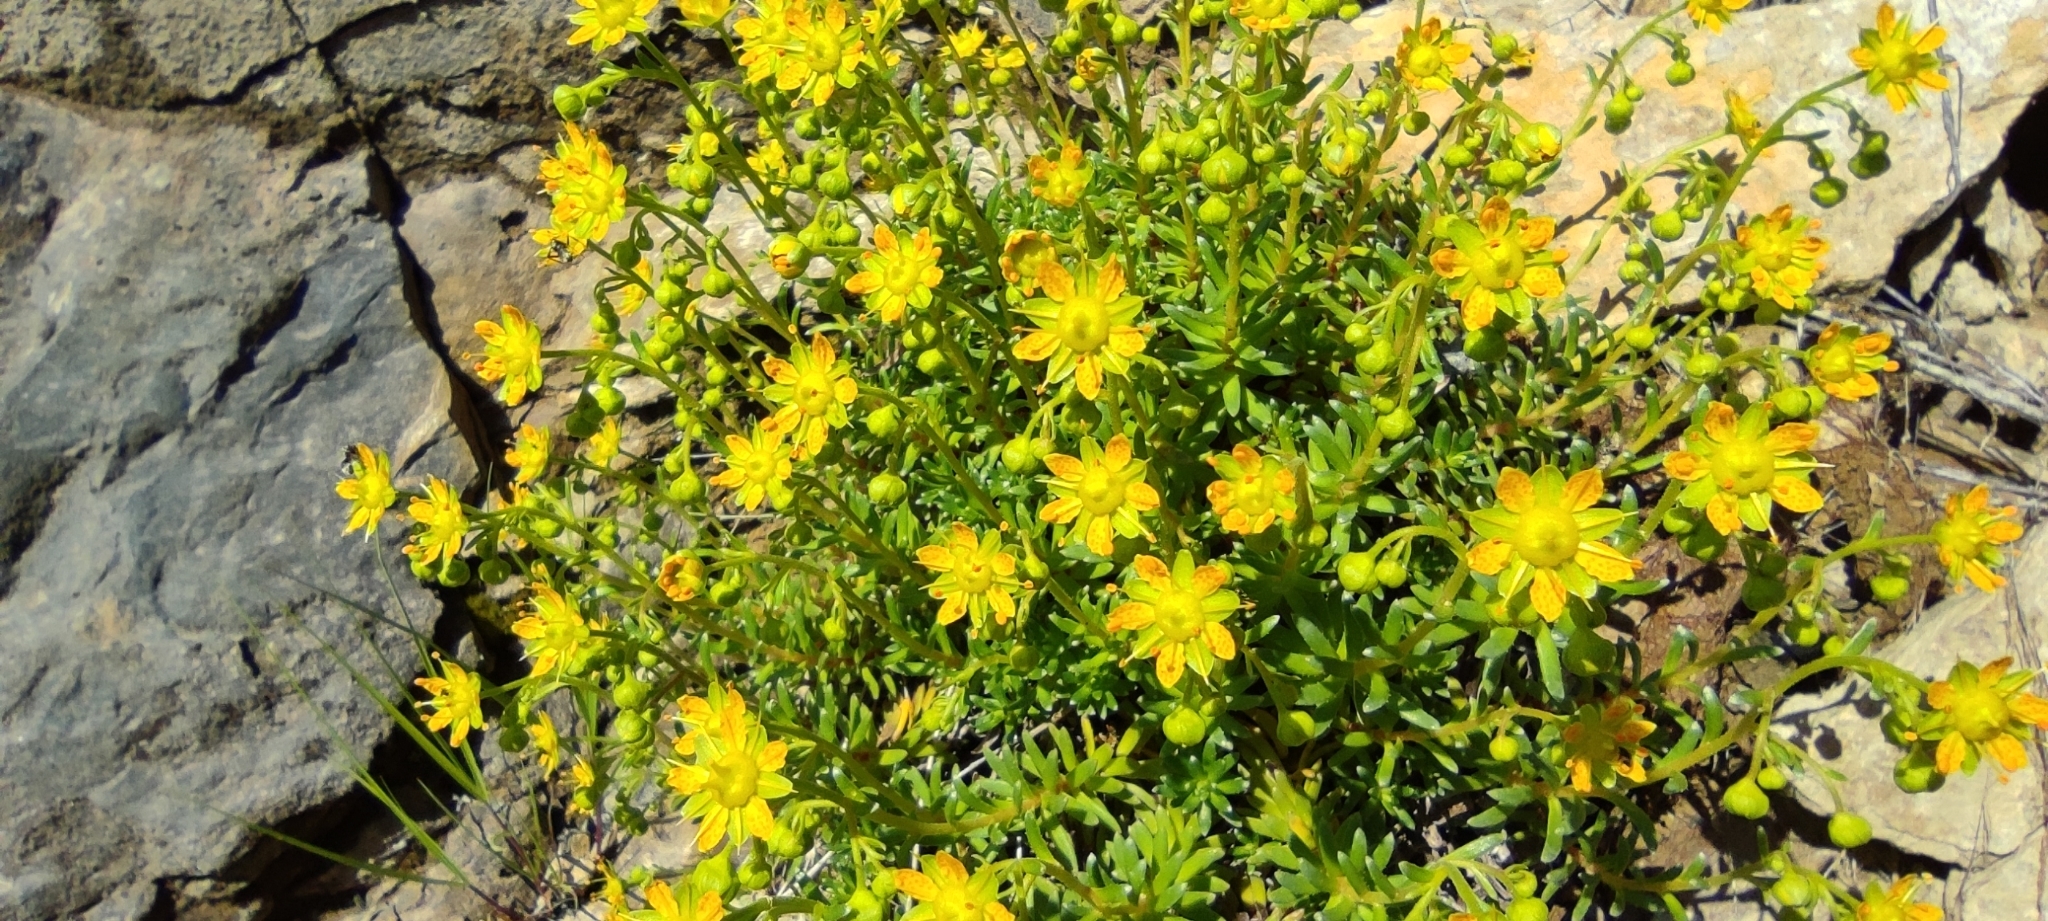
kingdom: Plantae
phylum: Tracheophyta
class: Magnoliopsida
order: Saxifragales
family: Saxifragaceae
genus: Saxifraga
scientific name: Saxifraga aizoides
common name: Yellow mountain saxifrage
